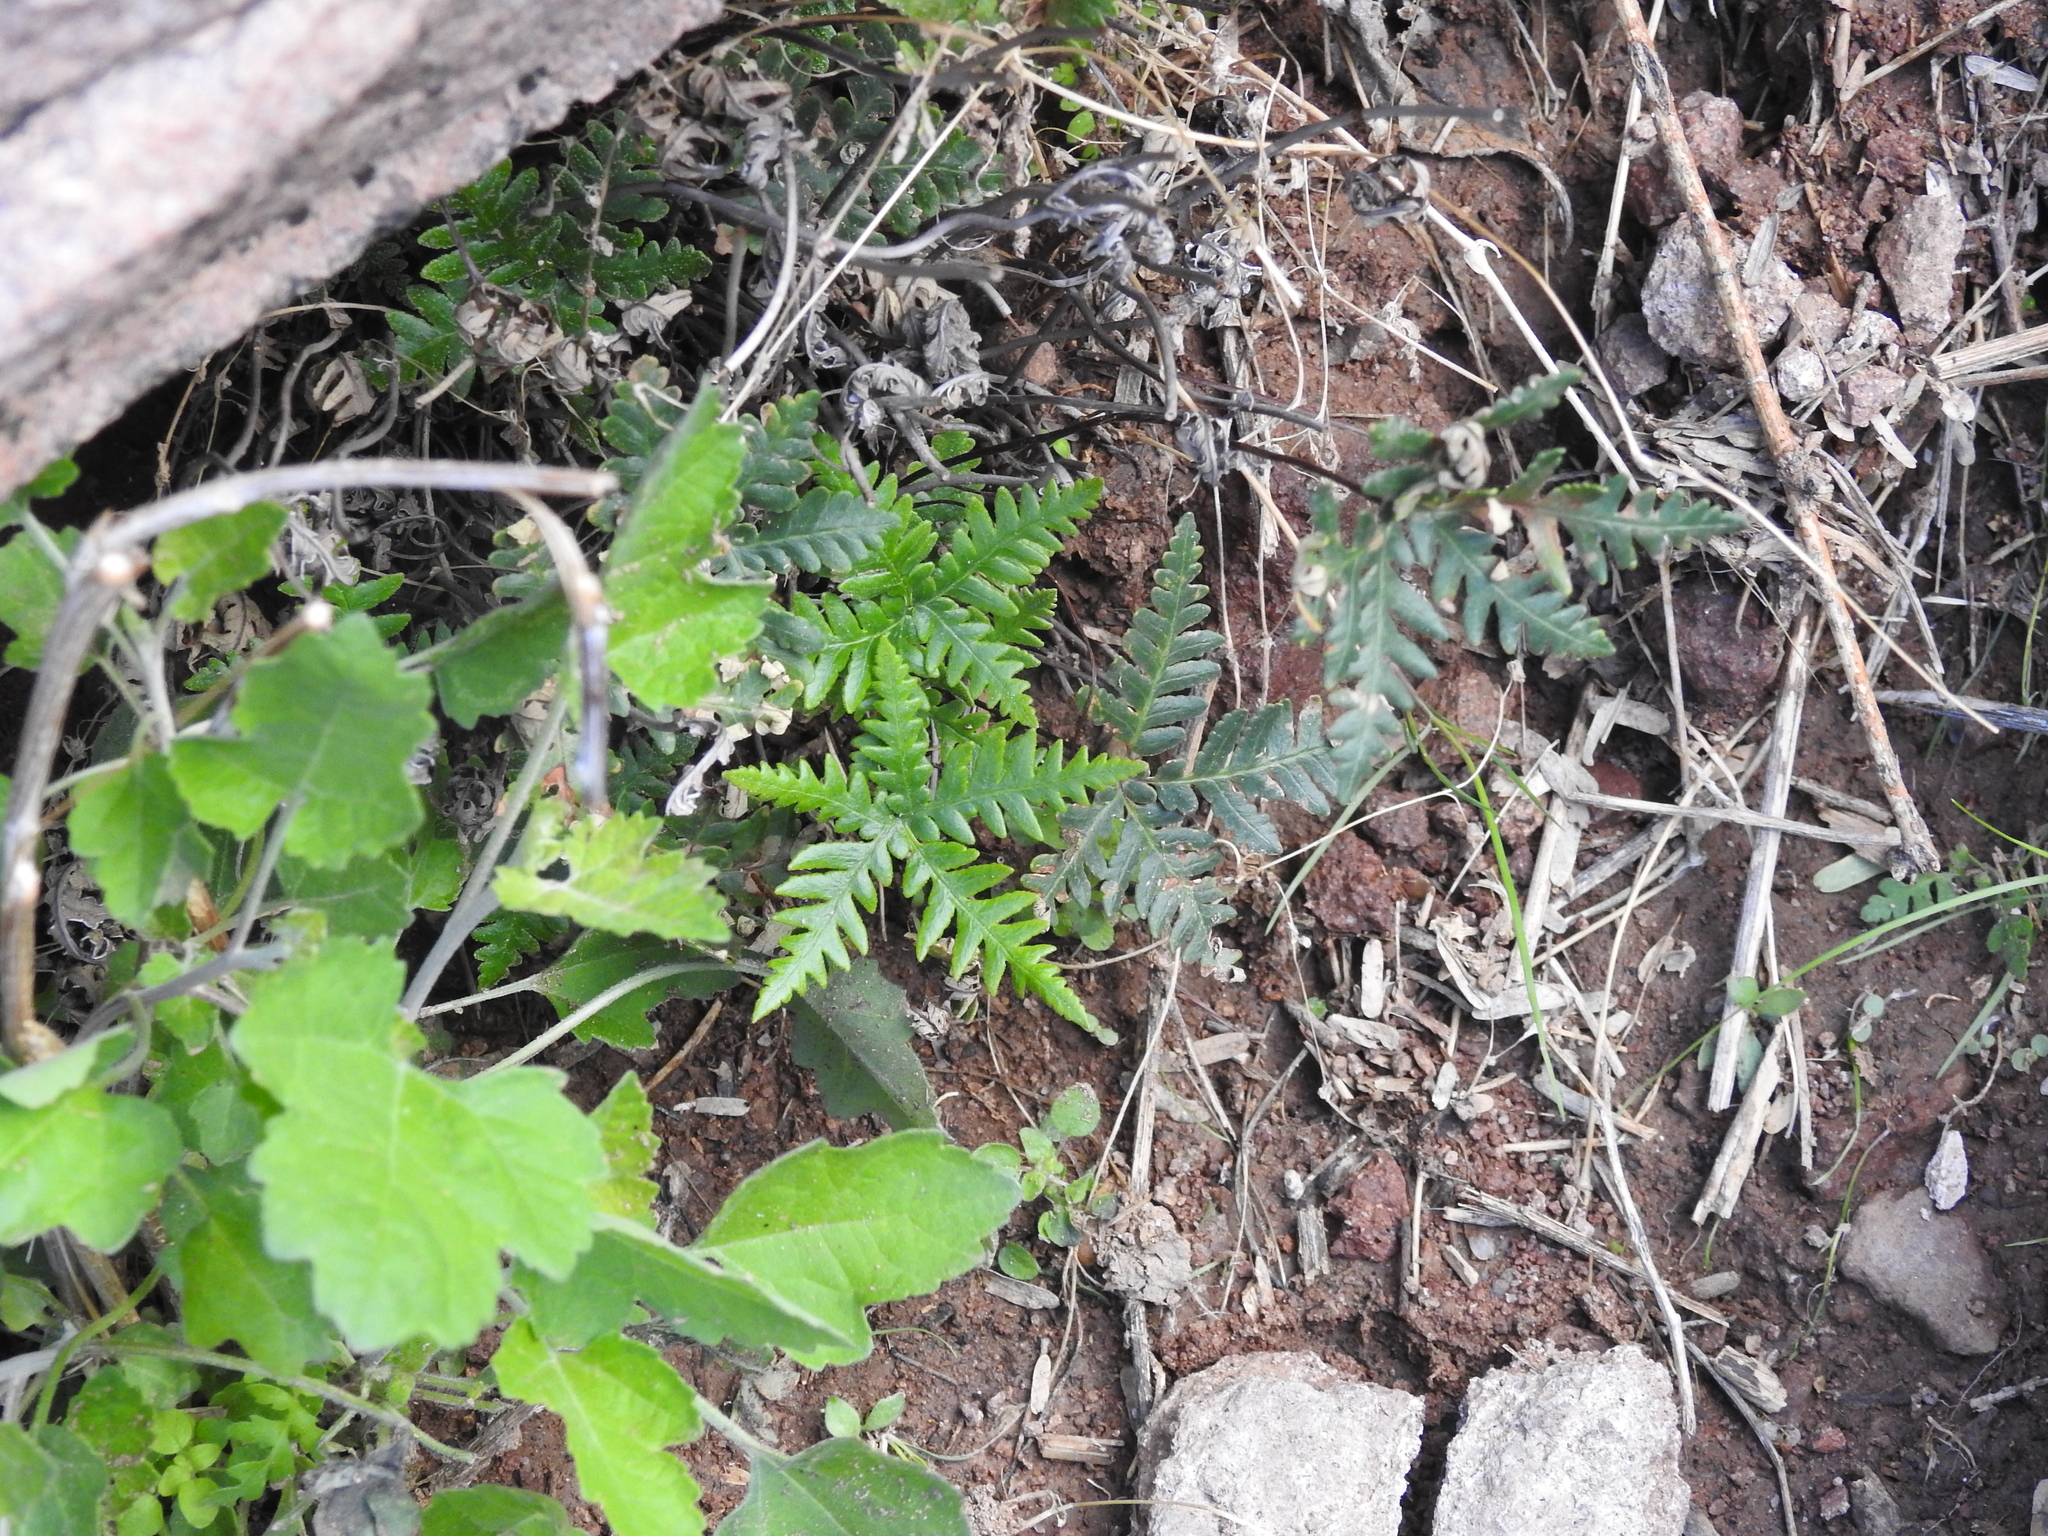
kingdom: Plantae
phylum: Tracheophyta
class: Polypodiopsida
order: Polypodiales
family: Pteridaceae
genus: Notholaena
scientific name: Notholaena standleyi
